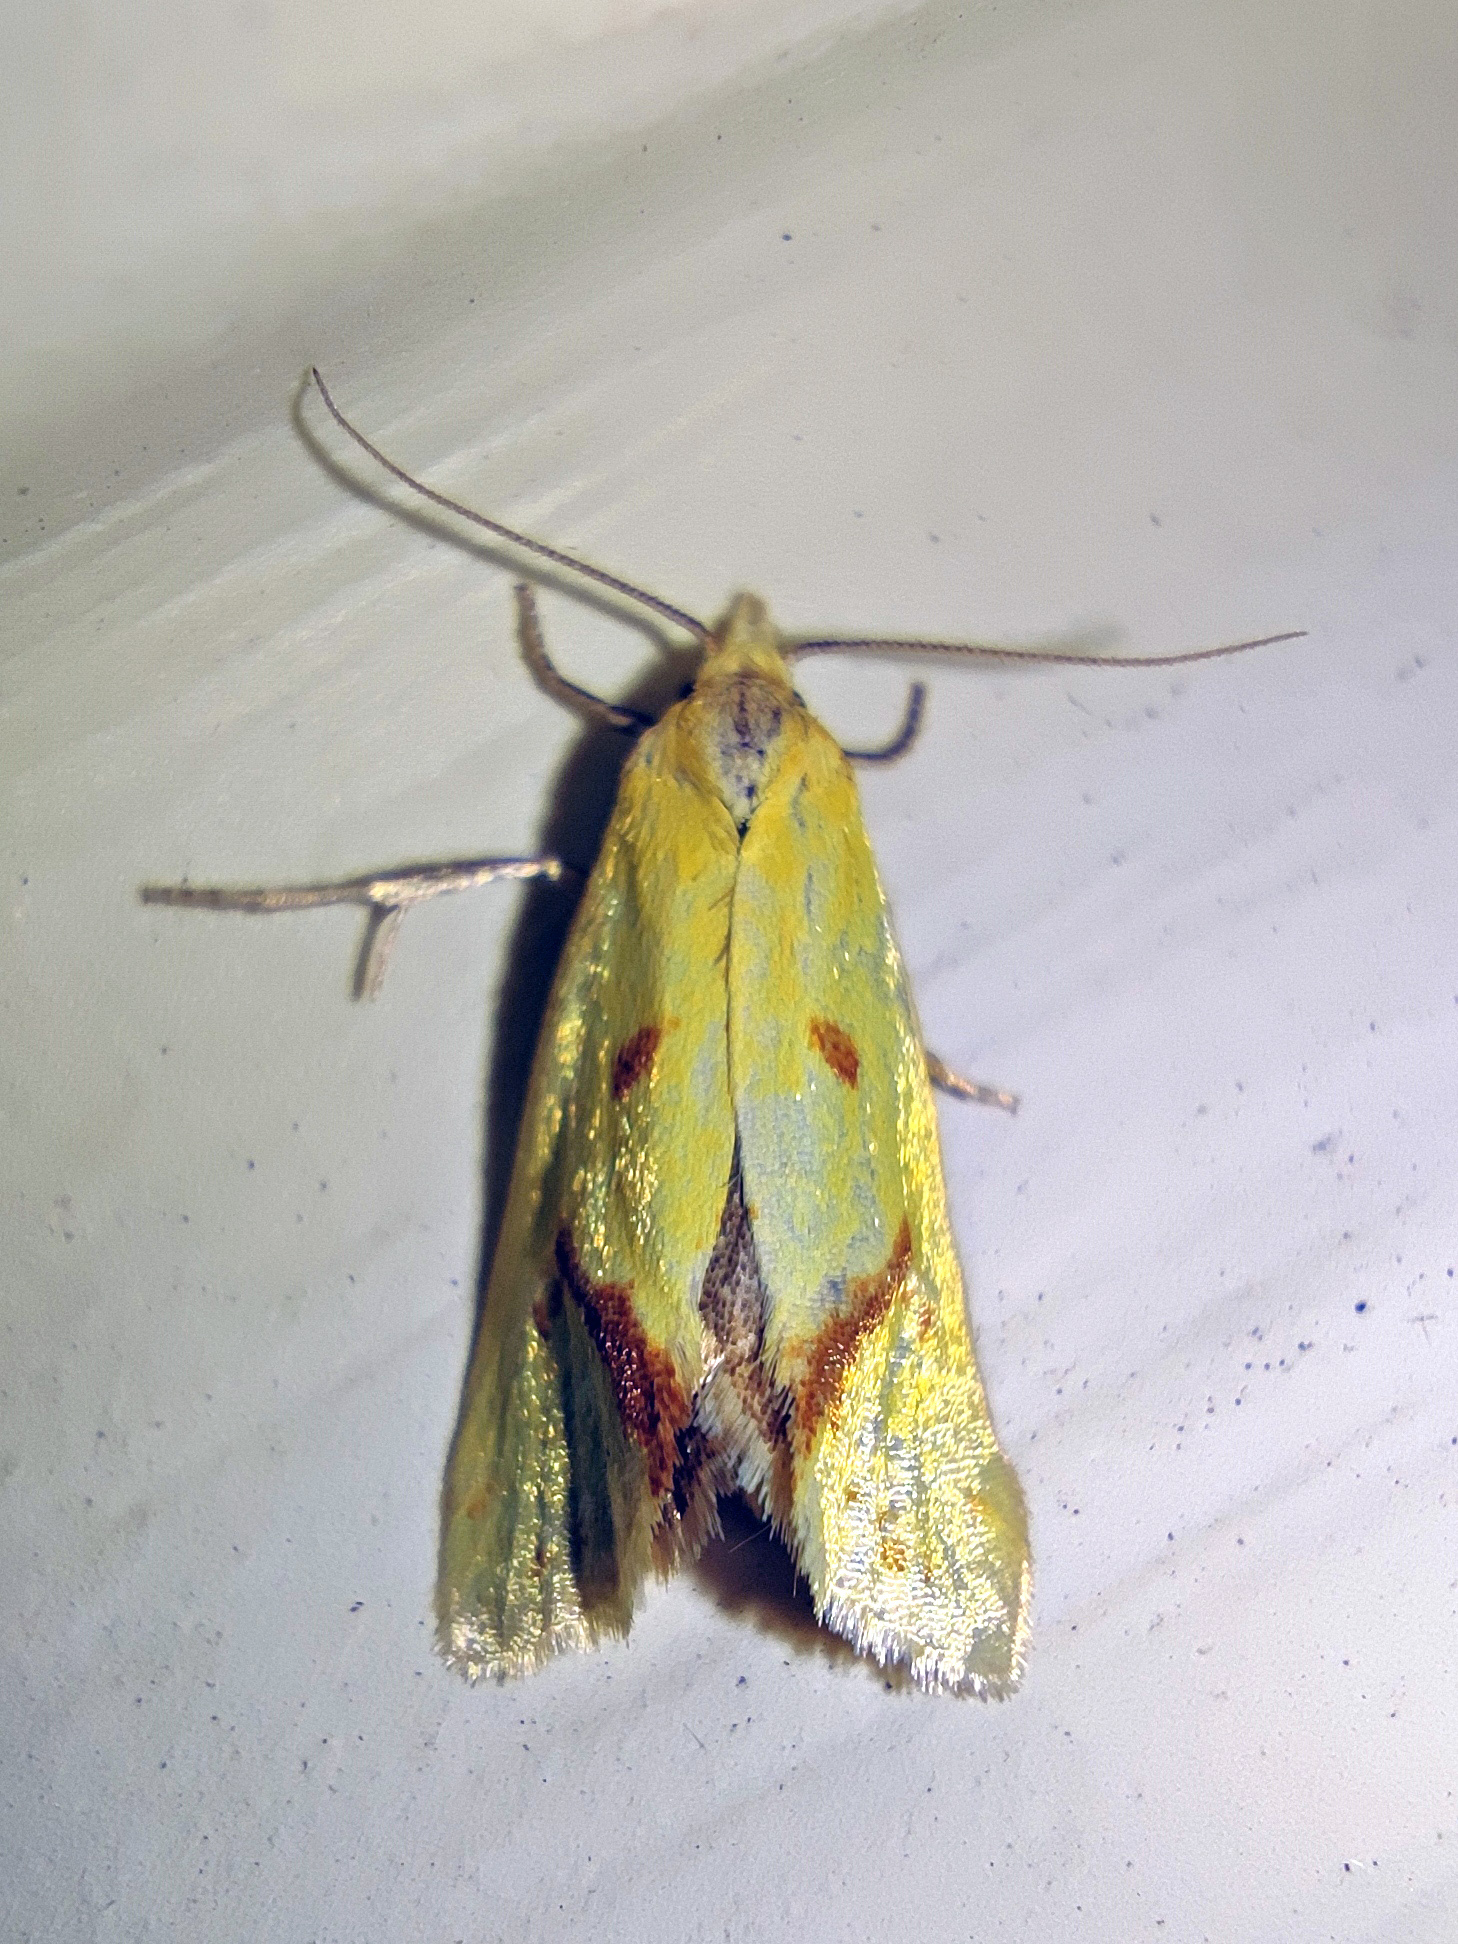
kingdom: Animalia
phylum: Arthropoda
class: Insecta
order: Lepidoptera
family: Tortricidae
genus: Agapeta
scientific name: Agapeta hamana
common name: Common yellow conch
